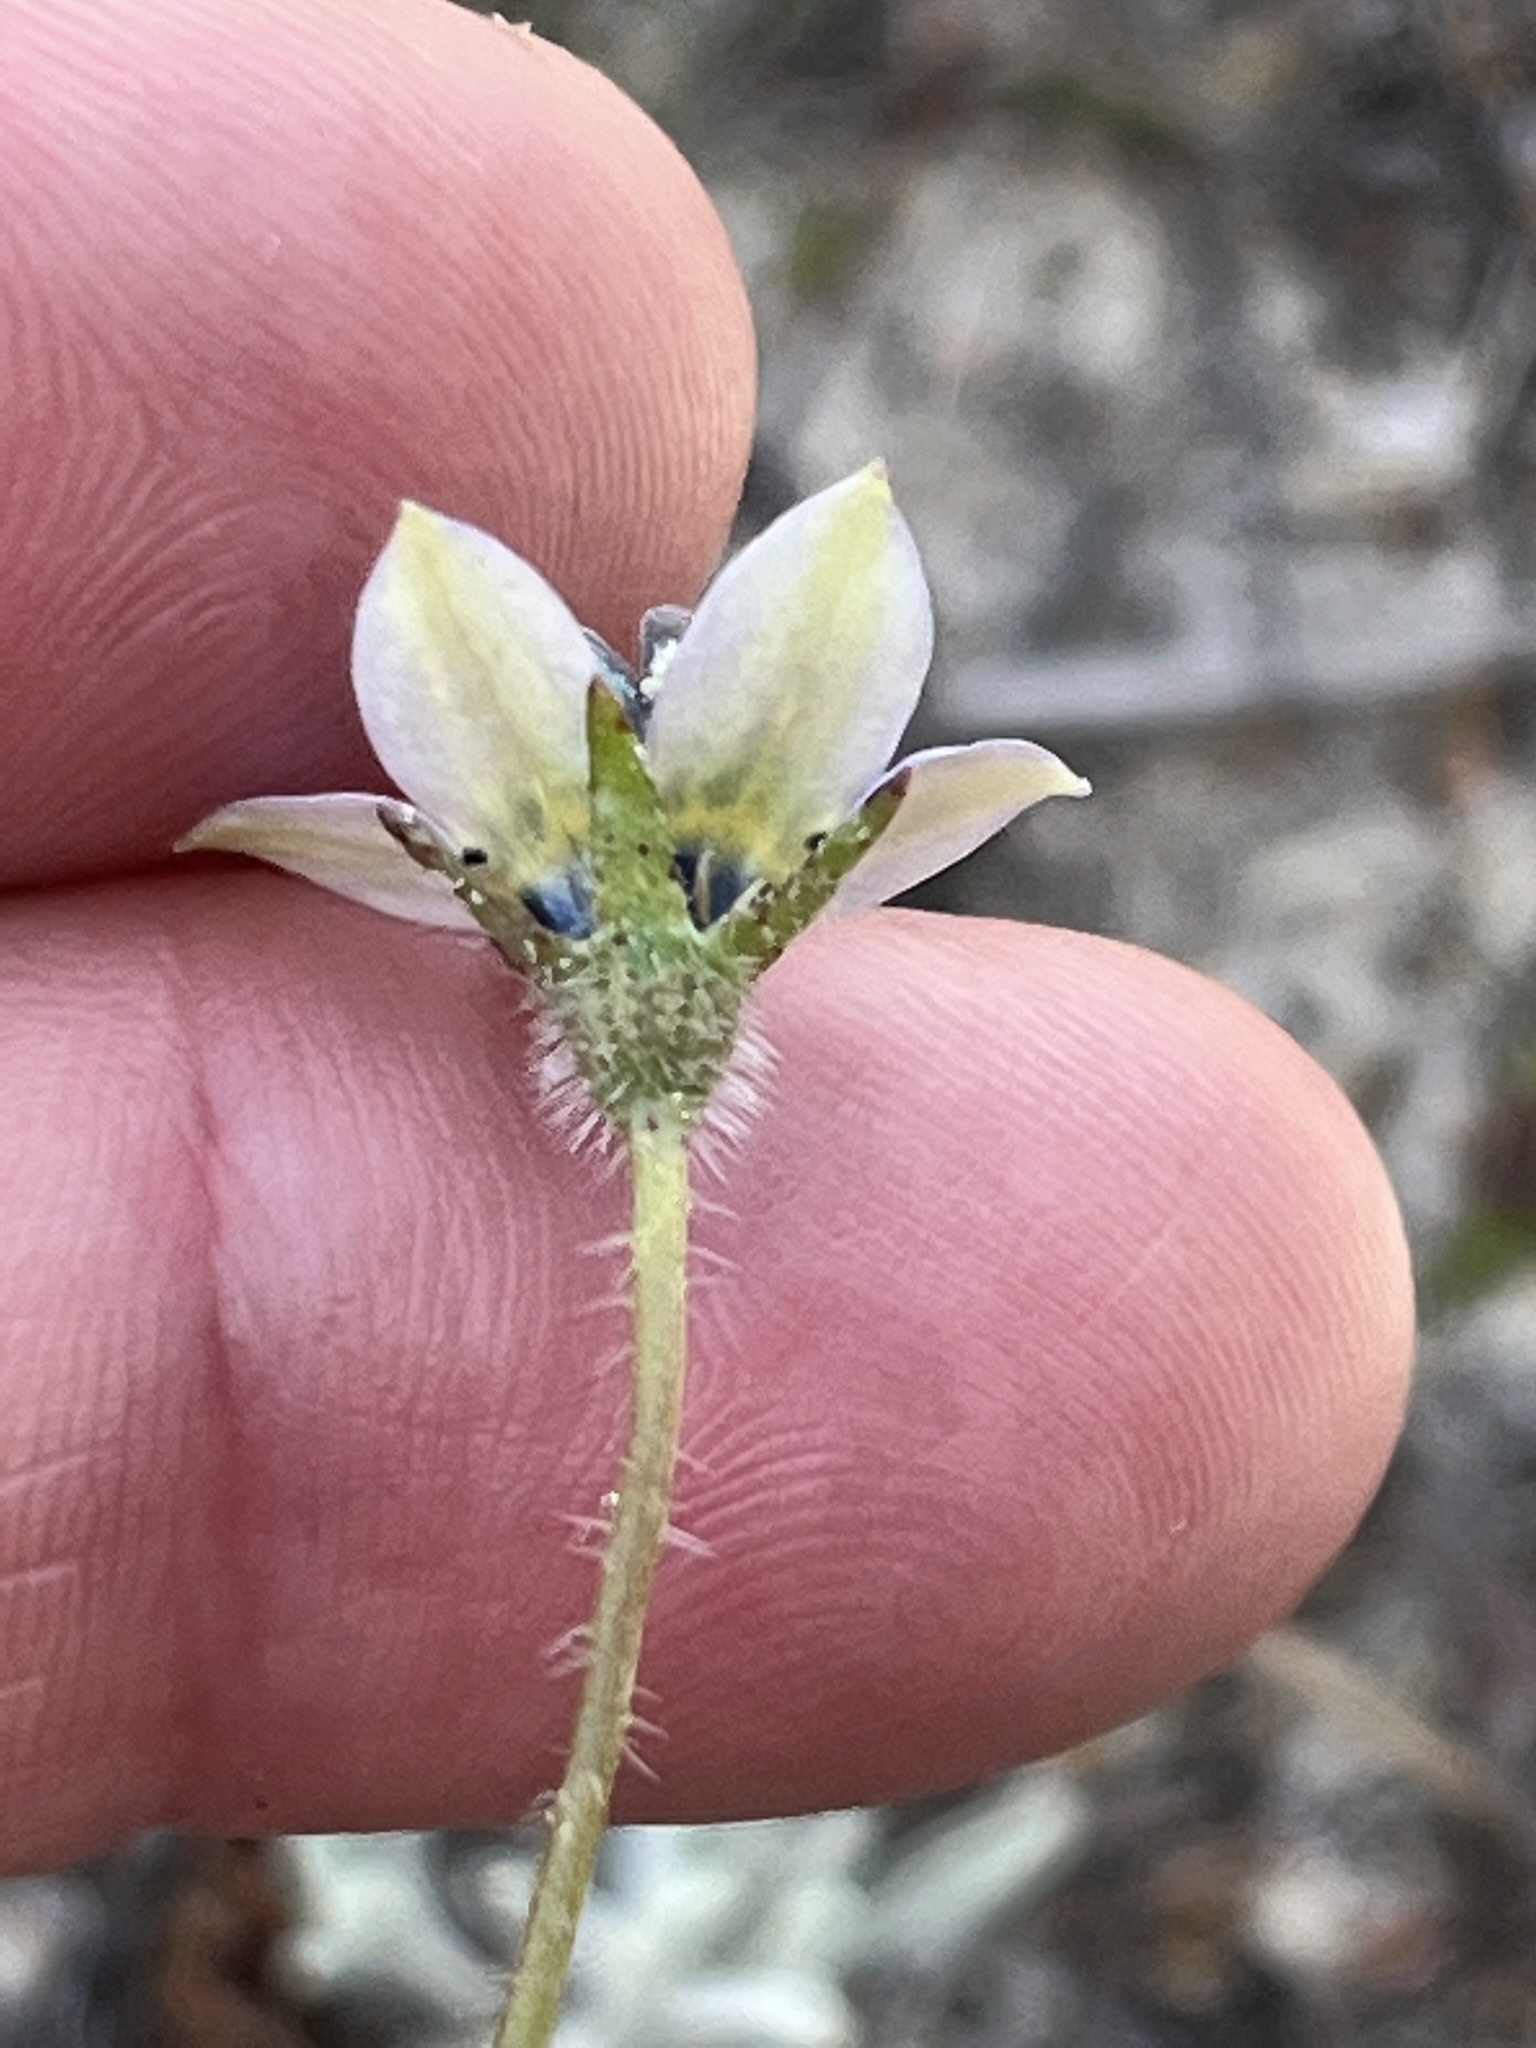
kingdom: Plantae
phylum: Tracheophyta
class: Magnoliopsida
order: Asterales
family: Campanulaceae
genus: Wahlenbergia
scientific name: Wahlenbergia capensis
